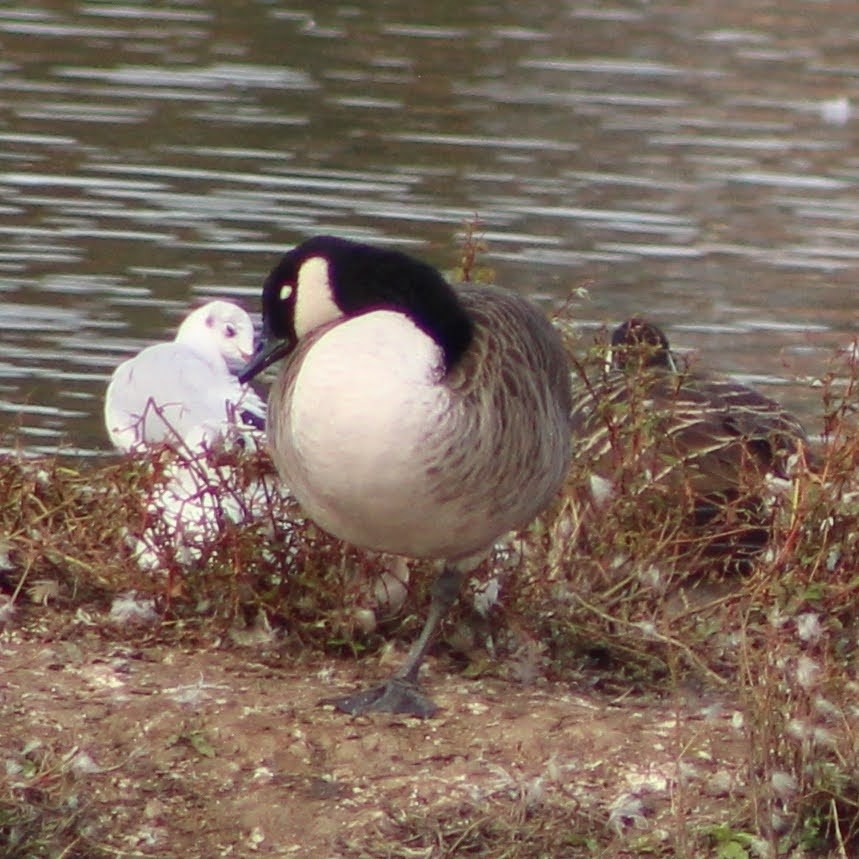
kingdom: Animalia
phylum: Chordata
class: Aves
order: Anseriformes
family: Anatidae
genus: Branta
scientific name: Branta canadensis
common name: Canada goose
